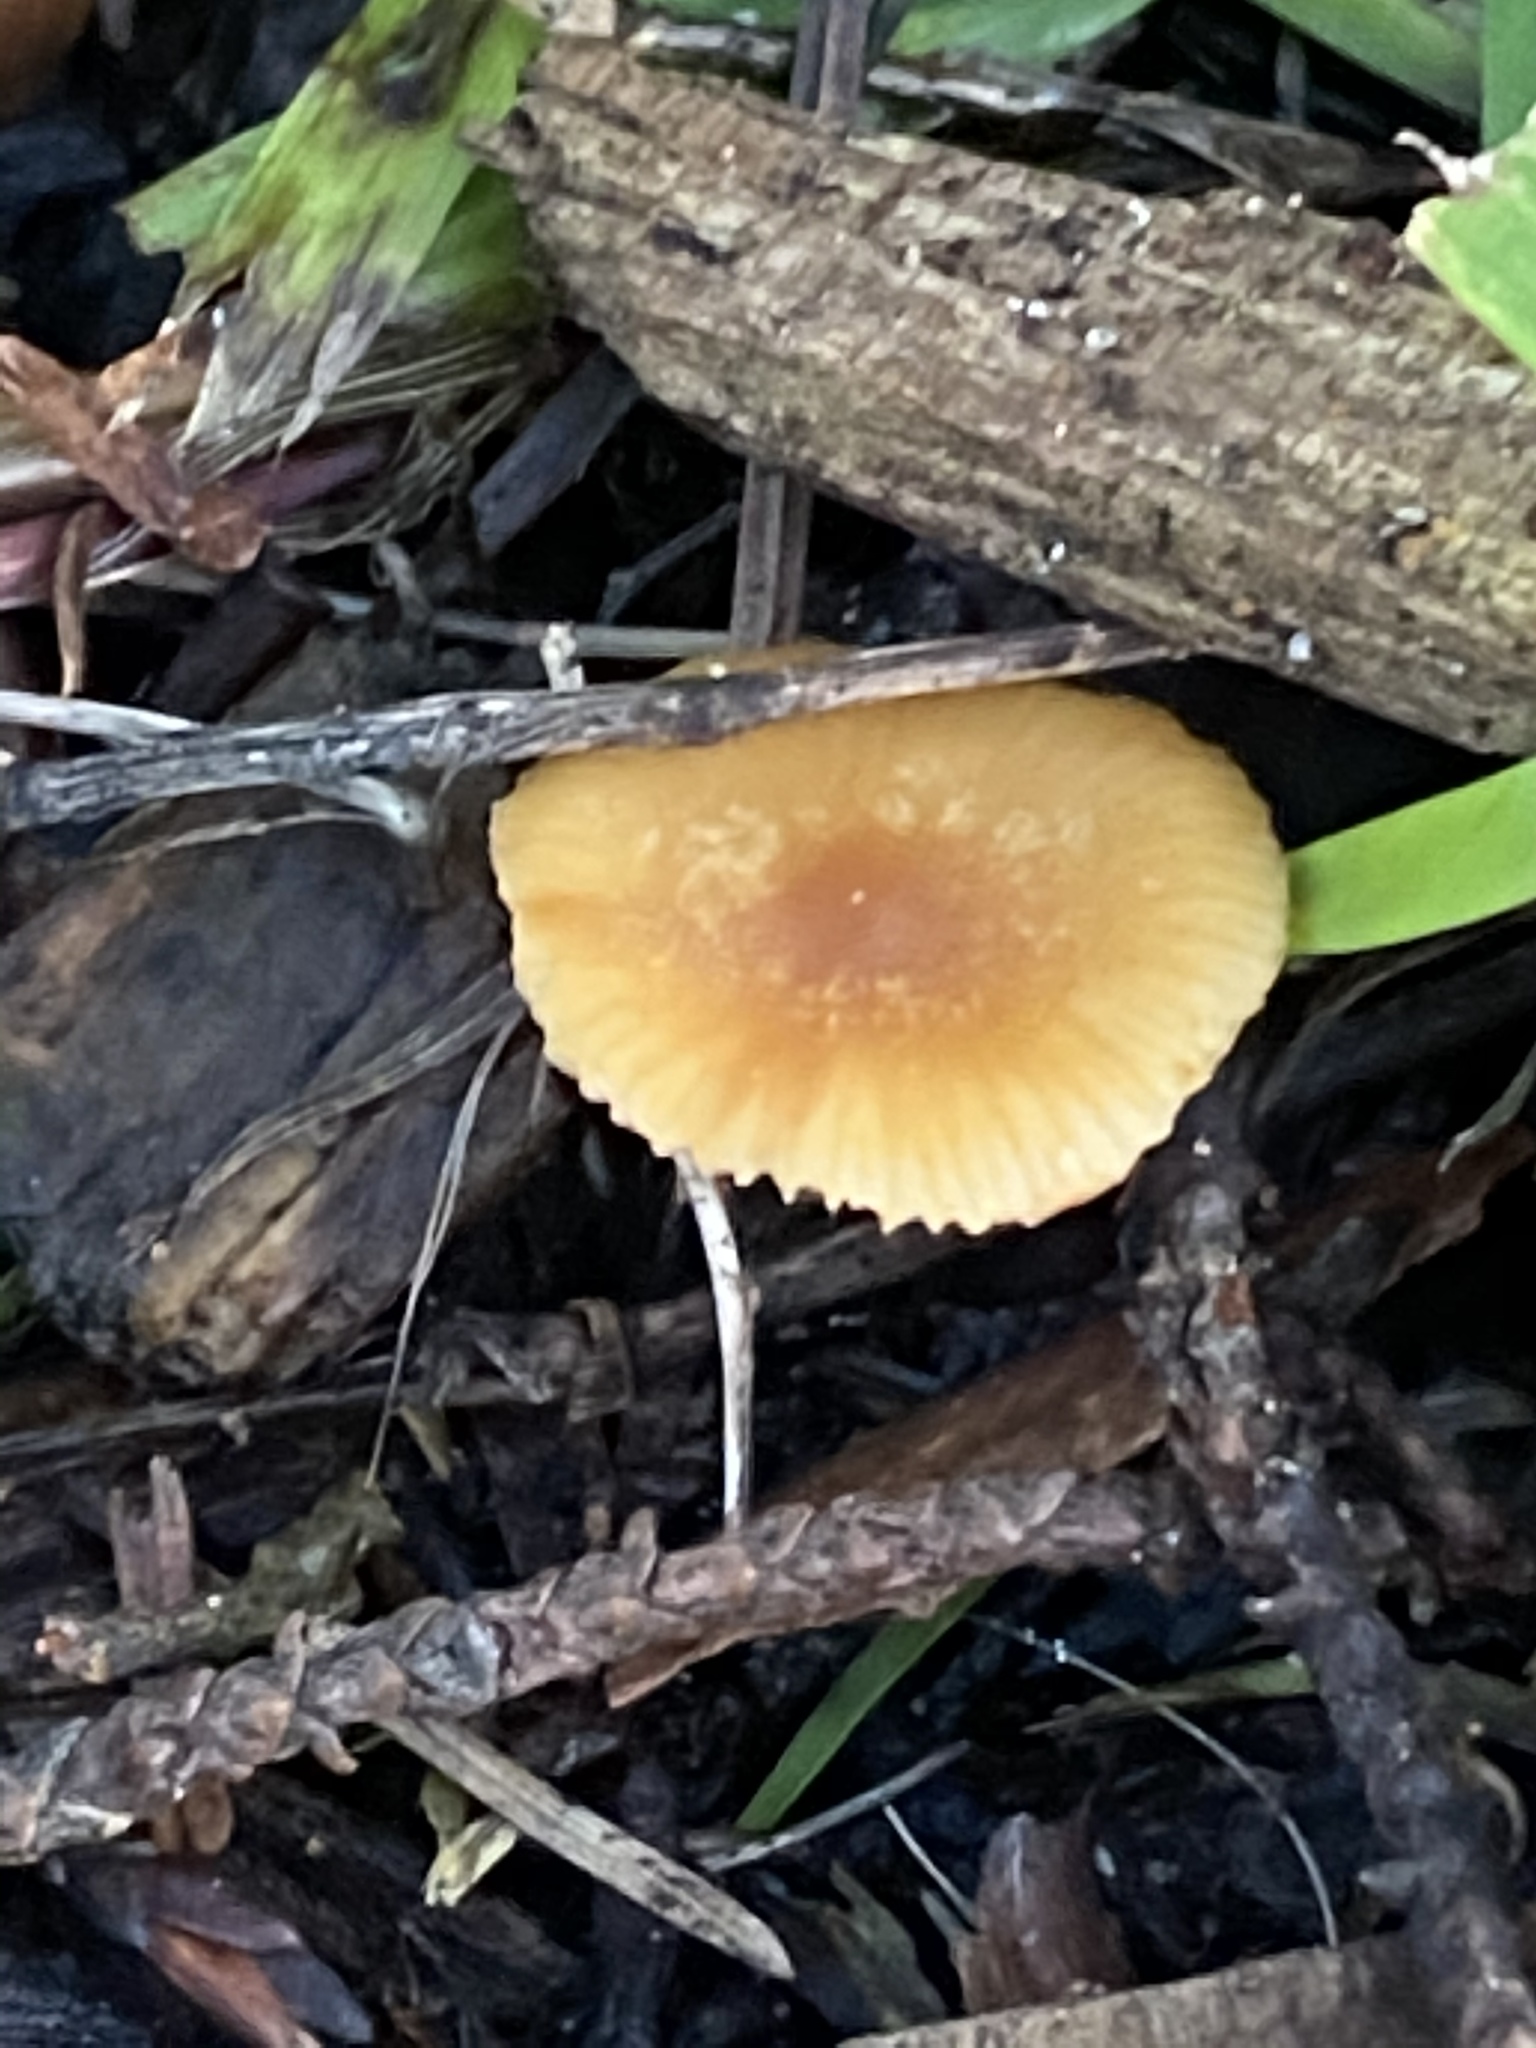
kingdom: Fungi
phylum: Basidiomycota
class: Agaricomycetes
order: Agaricales
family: Tubariaceae
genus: Tubaria
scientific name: Tubaria furfuracea
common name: Scurfy twiglet
